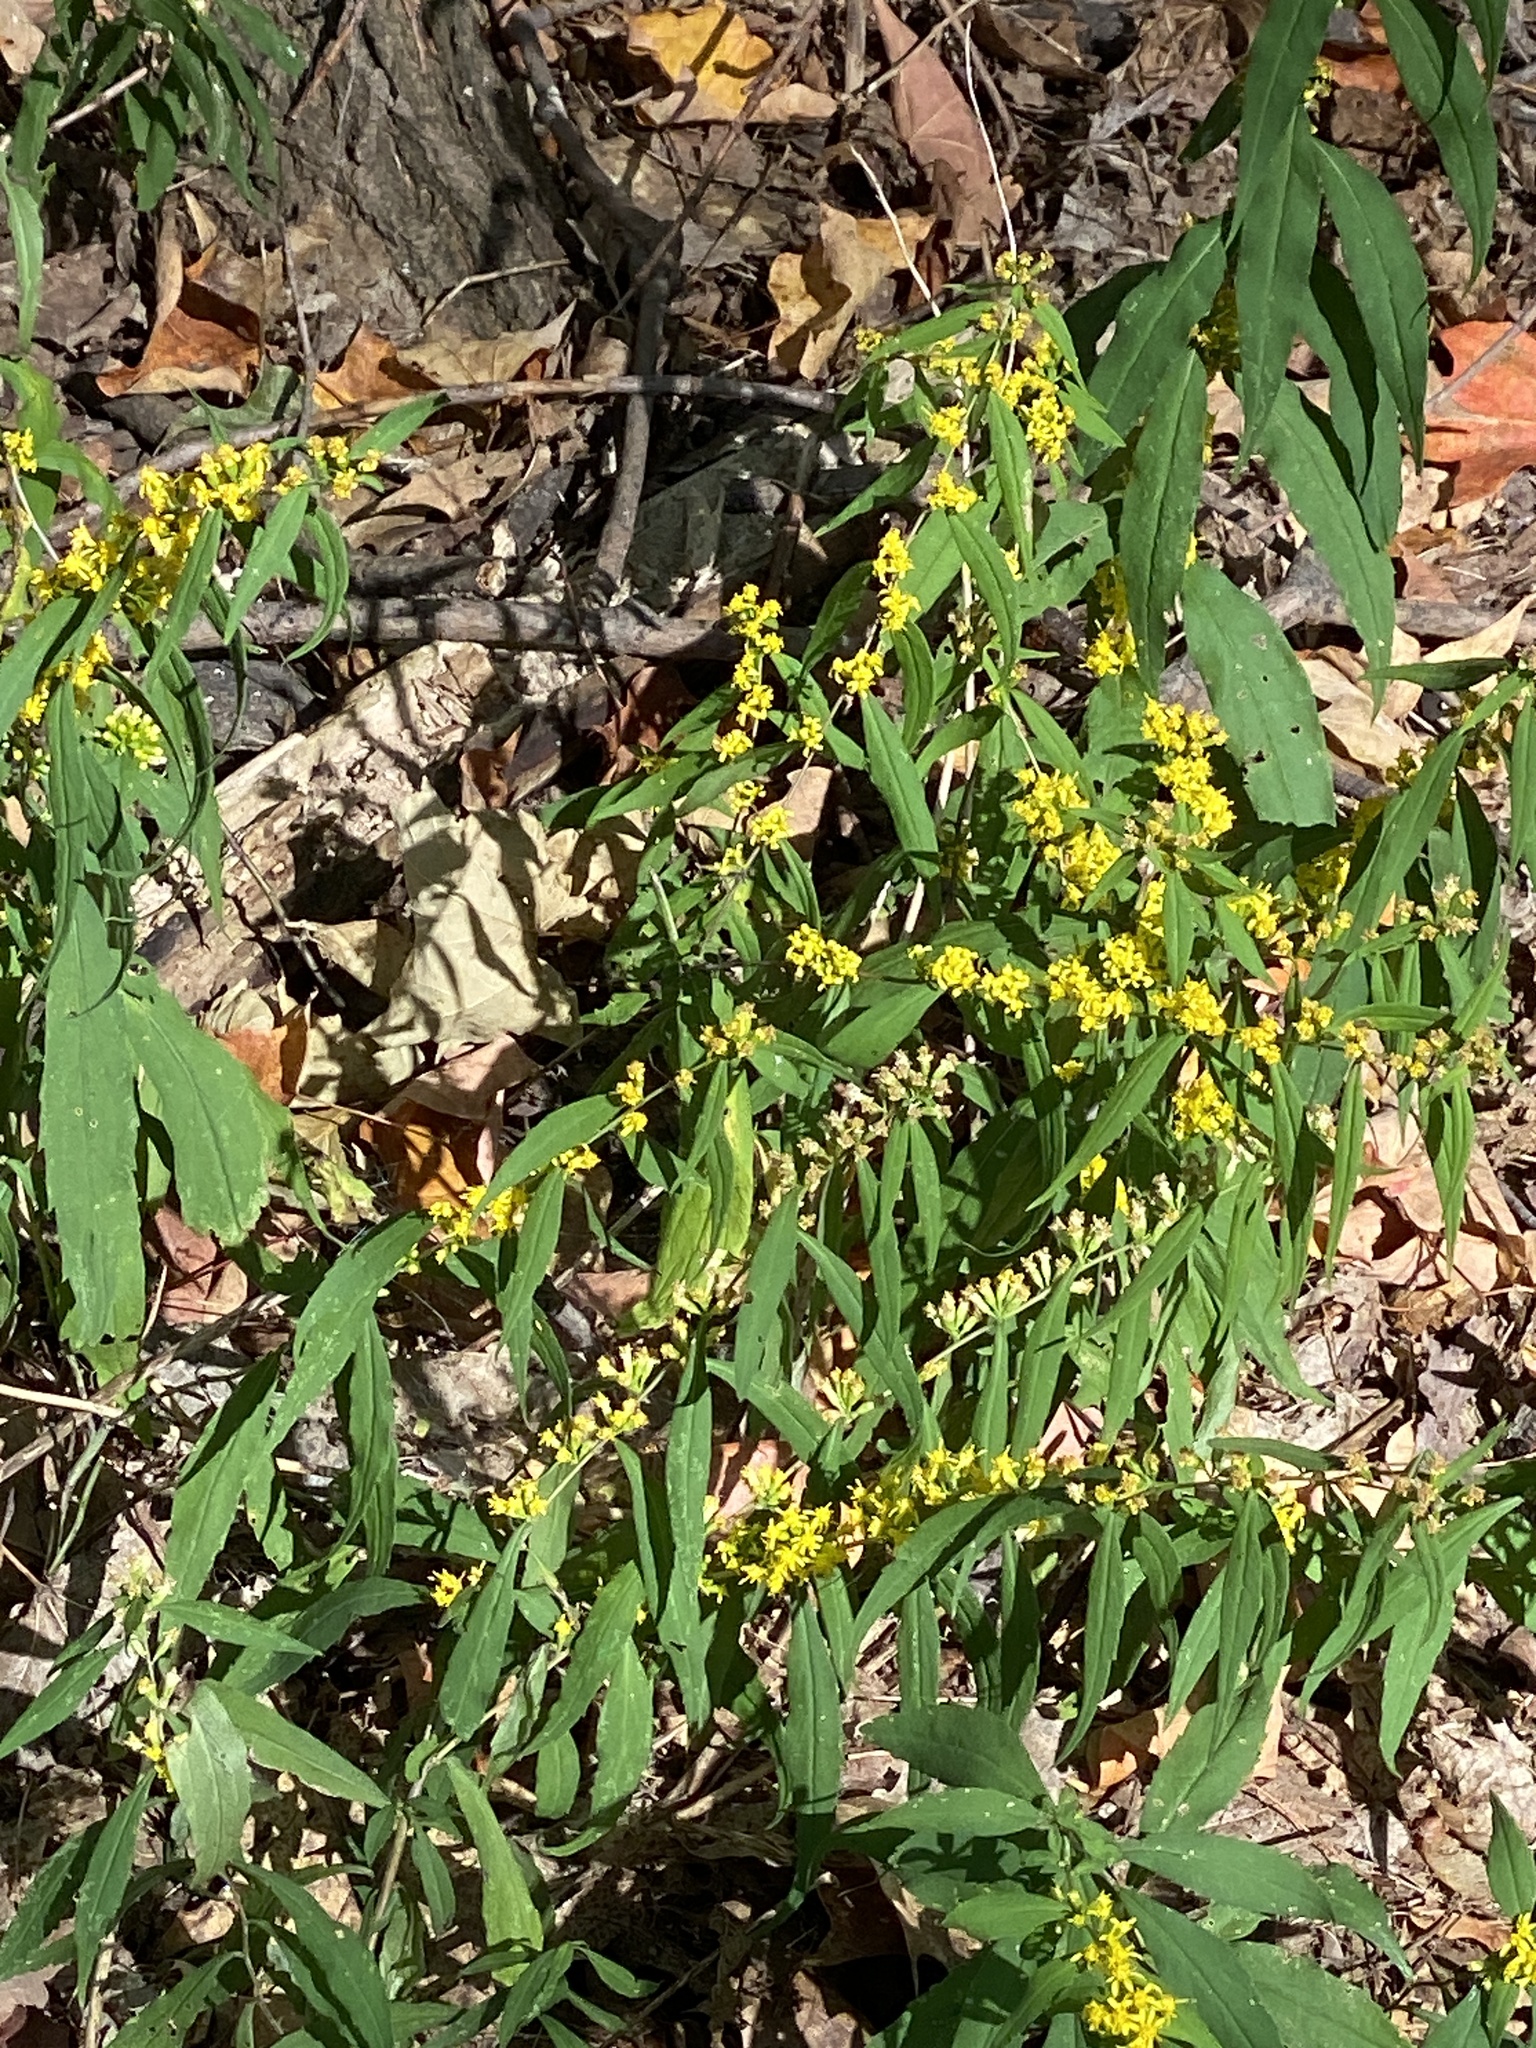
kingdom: Plantae
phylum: Tracheophyta
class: Magnoliopsida
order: Asterales
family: Asteraceae
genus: Solidago
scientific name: Solidago caesia
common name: Woodland goldenrod
